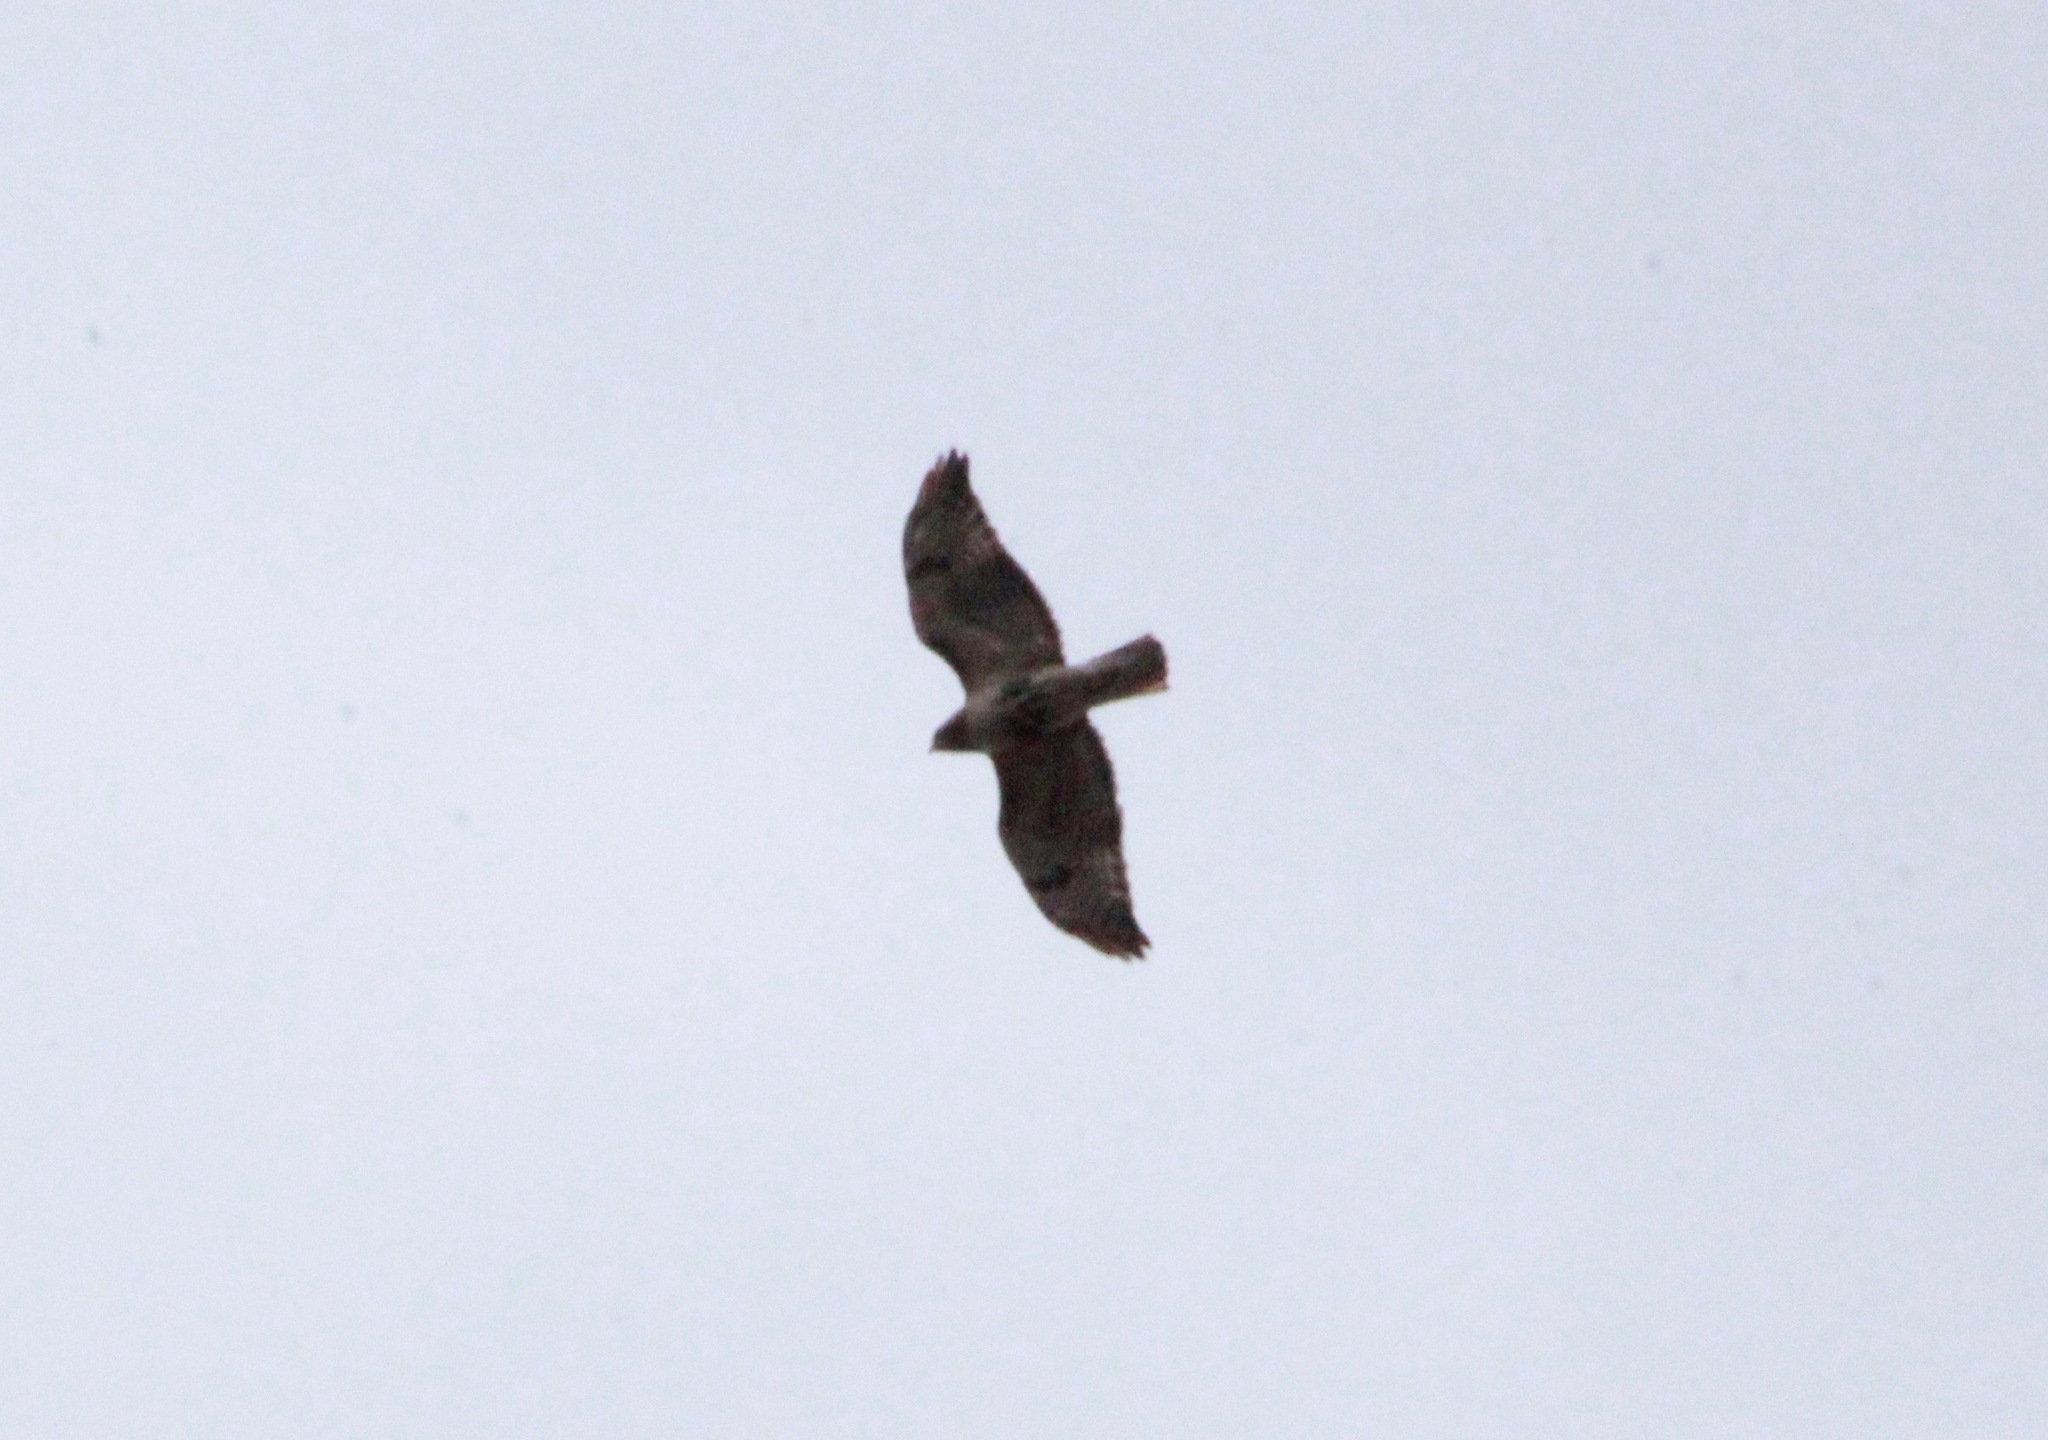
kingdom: Animalia
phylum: Chordata
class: Aves
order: Accipitriformes
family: Accipitridae
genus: Buteo
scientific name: Buteo jamaicensis
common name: Red-tailed hawk
